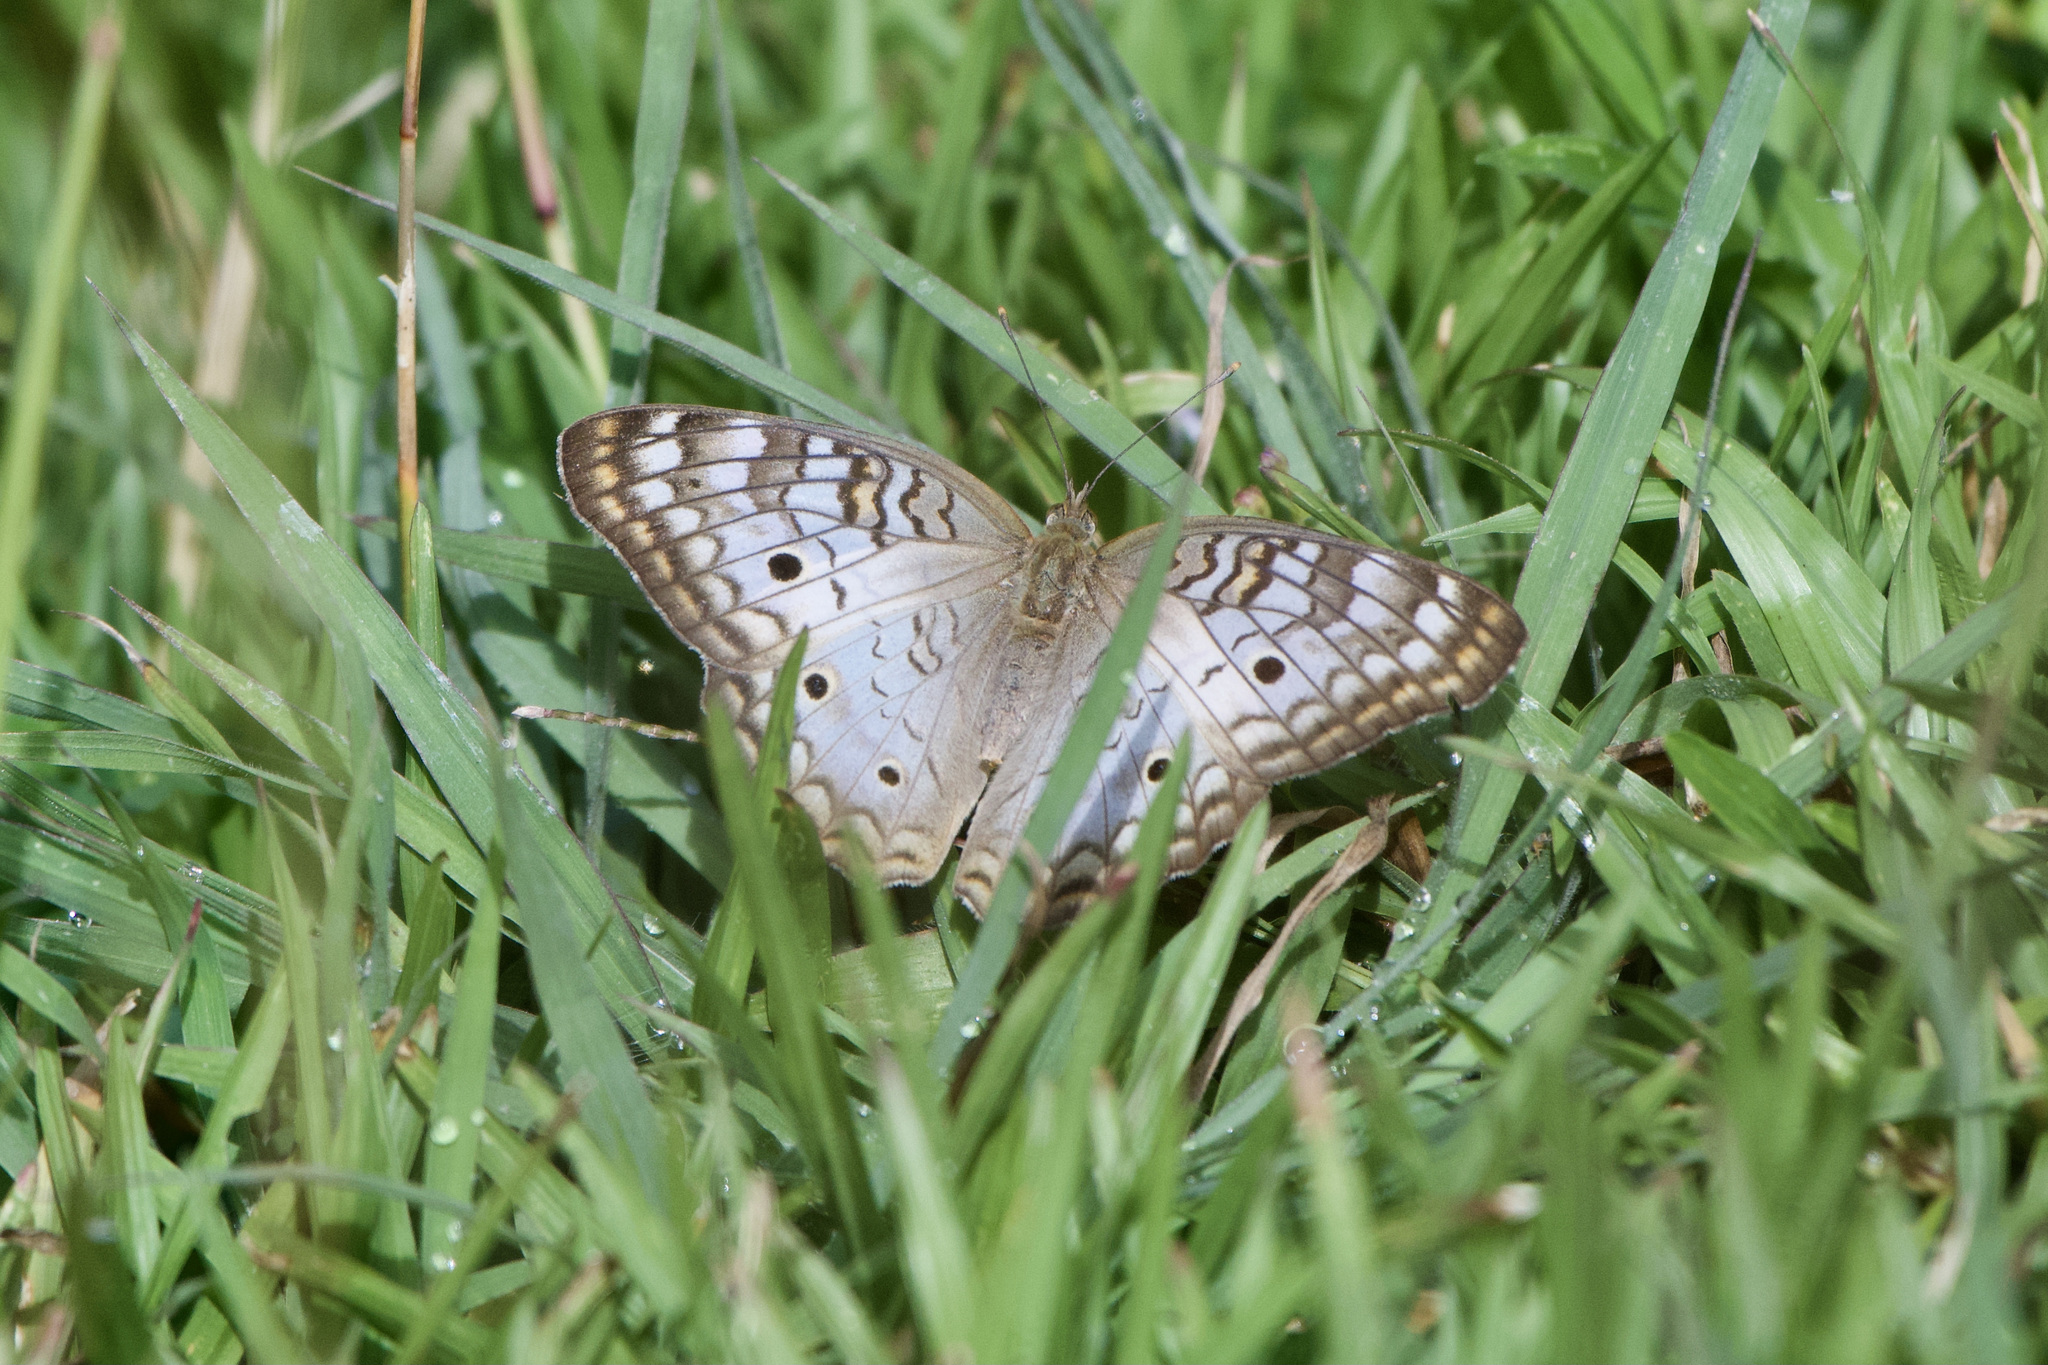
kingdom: Animalia
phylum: Arthropoda
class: Insecta
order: Lepidoptera
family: Nymphalidae
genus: Anartia
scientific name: Anartia jatrophae
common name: White peacock
